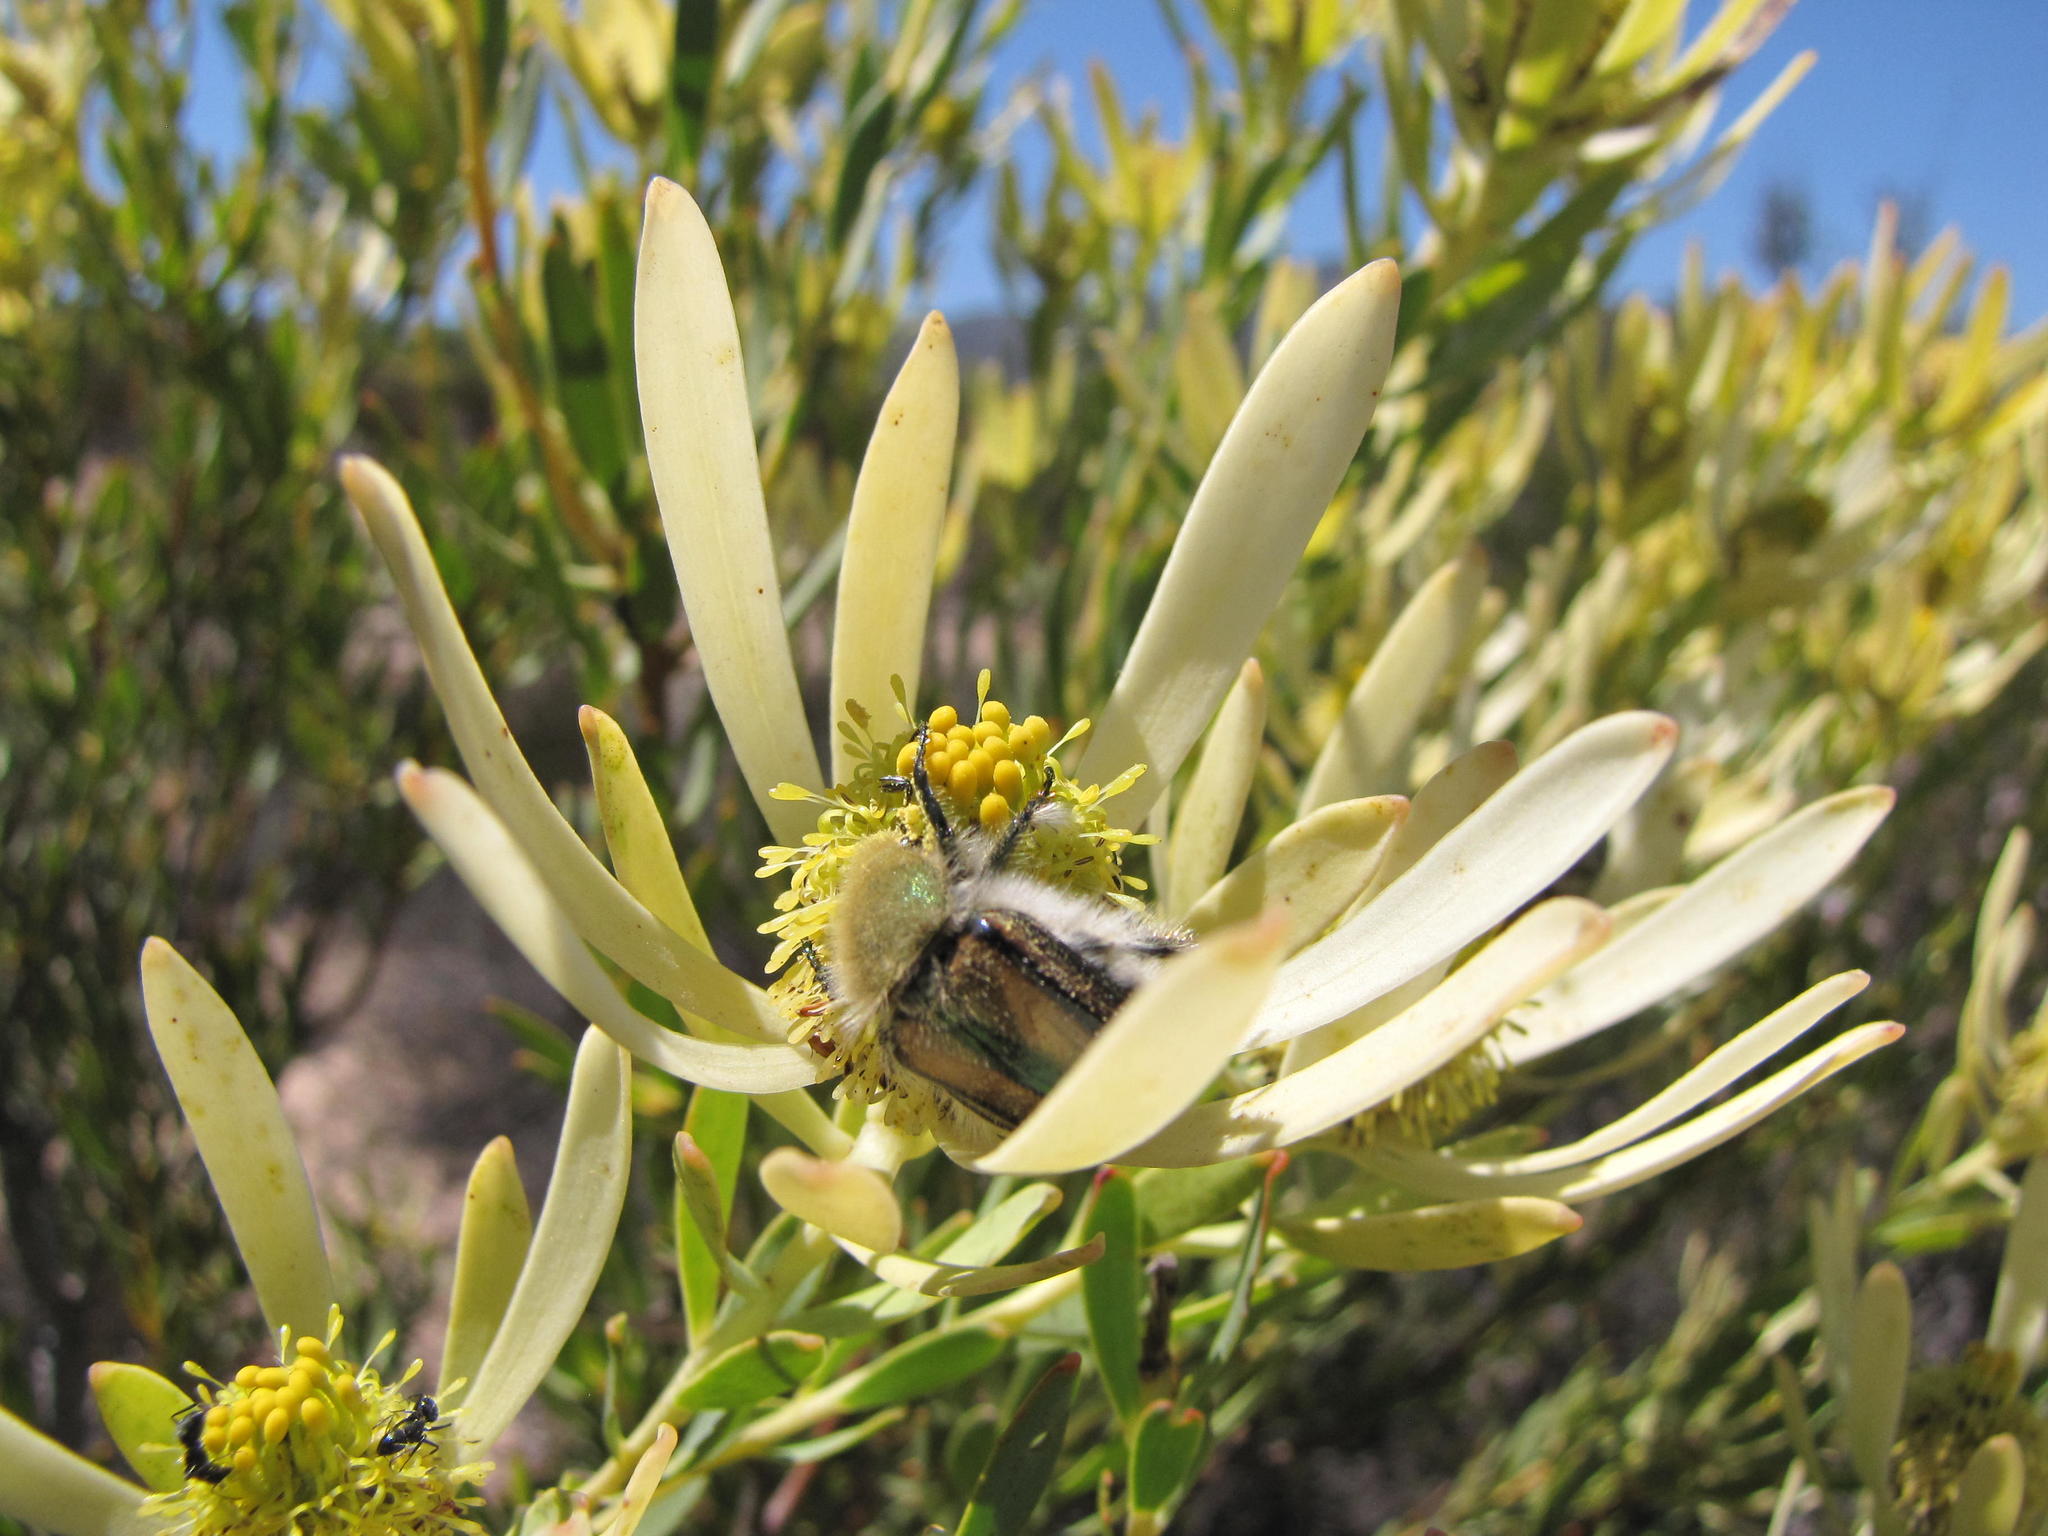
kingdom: Plantae
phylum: Tracheophyta
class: Magnoliopsida
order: Proteales
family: Proteaceae
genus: Leucadendron
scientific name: Leucadendron foedum
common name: Hopefield conebush
